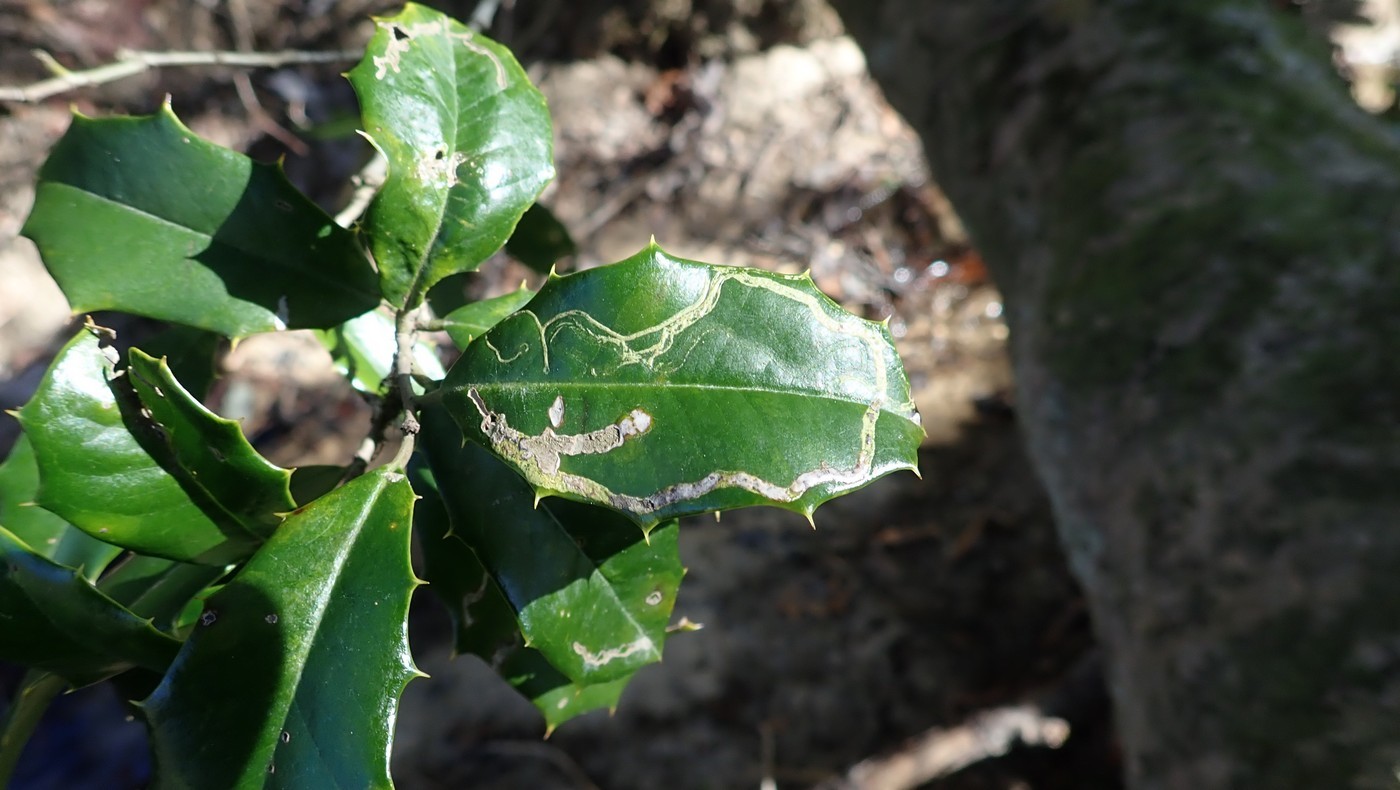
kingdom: Animalia
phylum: Arthropoda
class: Insecta
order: Diptera
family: Agromyzidae
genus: Phytomyza
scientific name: Phytomyza opacae
